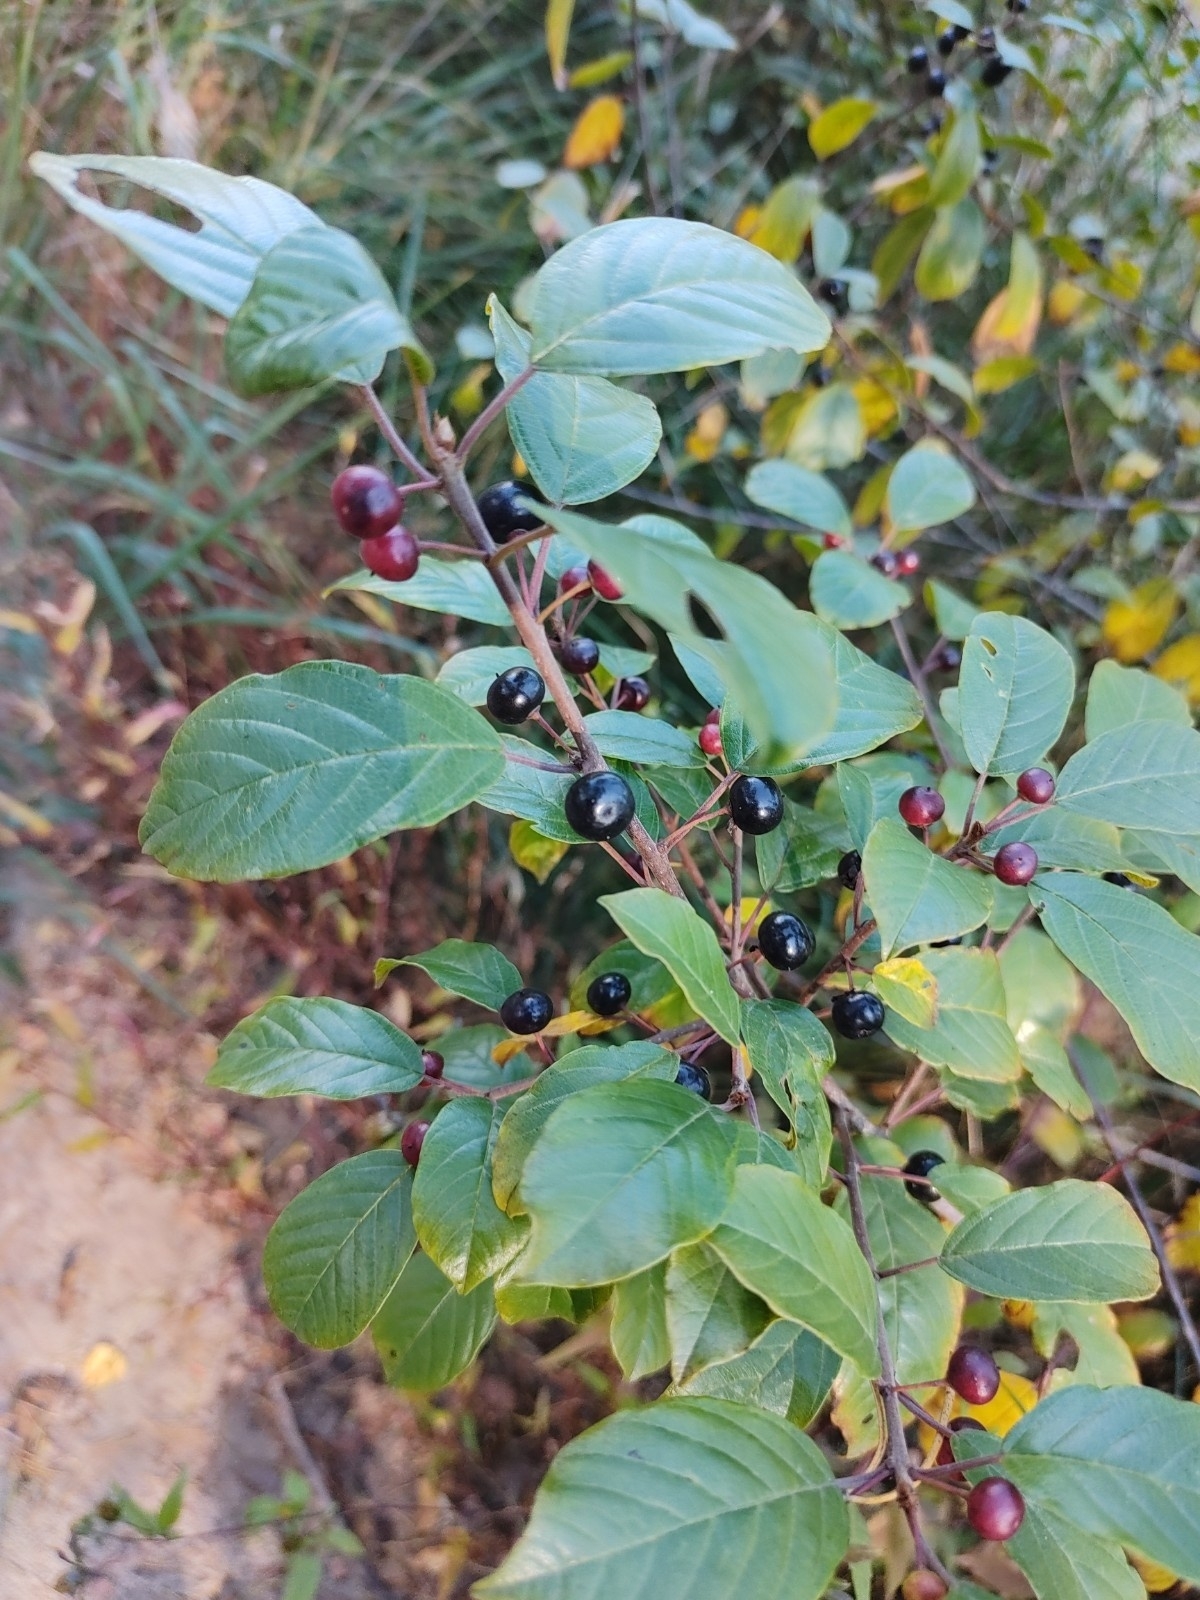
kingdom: Plantae
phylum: Tracheophyta
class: Magnoliopsida
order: Rosales
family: Rhamnaceae
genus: Frangula
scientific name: Frangula alnus
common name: Alder buckthorn
